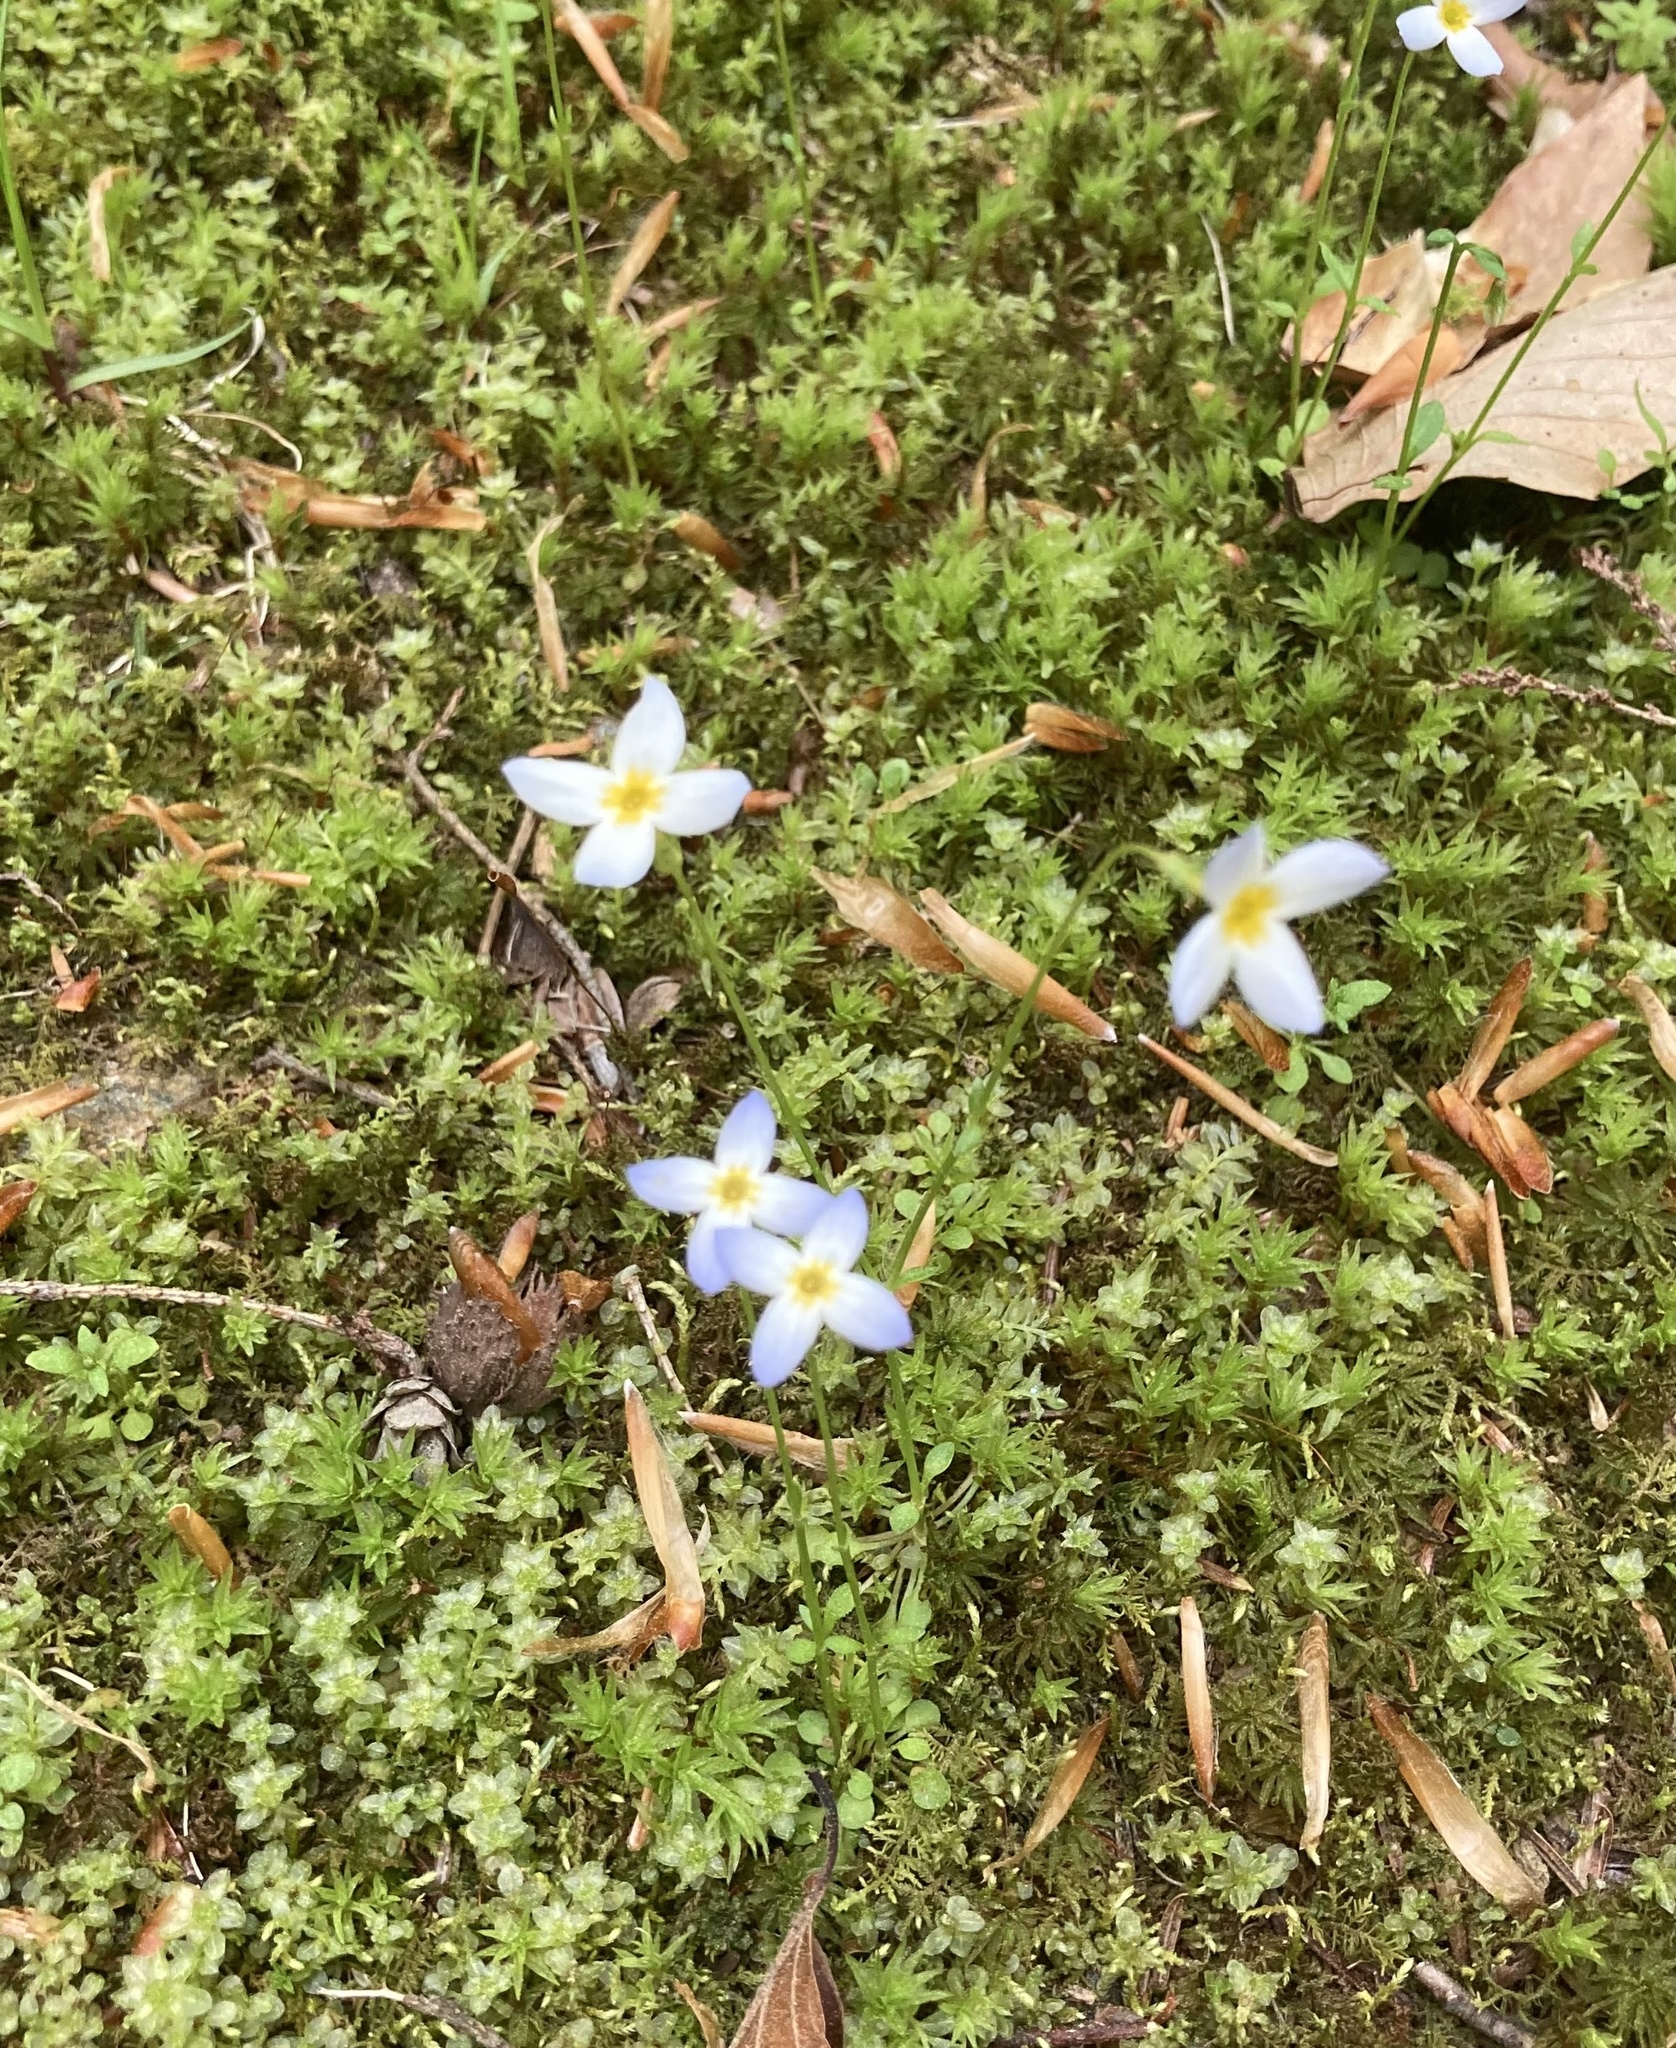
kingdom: Plantae
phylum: Tracheophyta
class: Magnoliopsida
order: Gentianales
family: Rubiaceae
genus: Houstonia
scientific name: Houstonia caerulea
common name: Bluets
